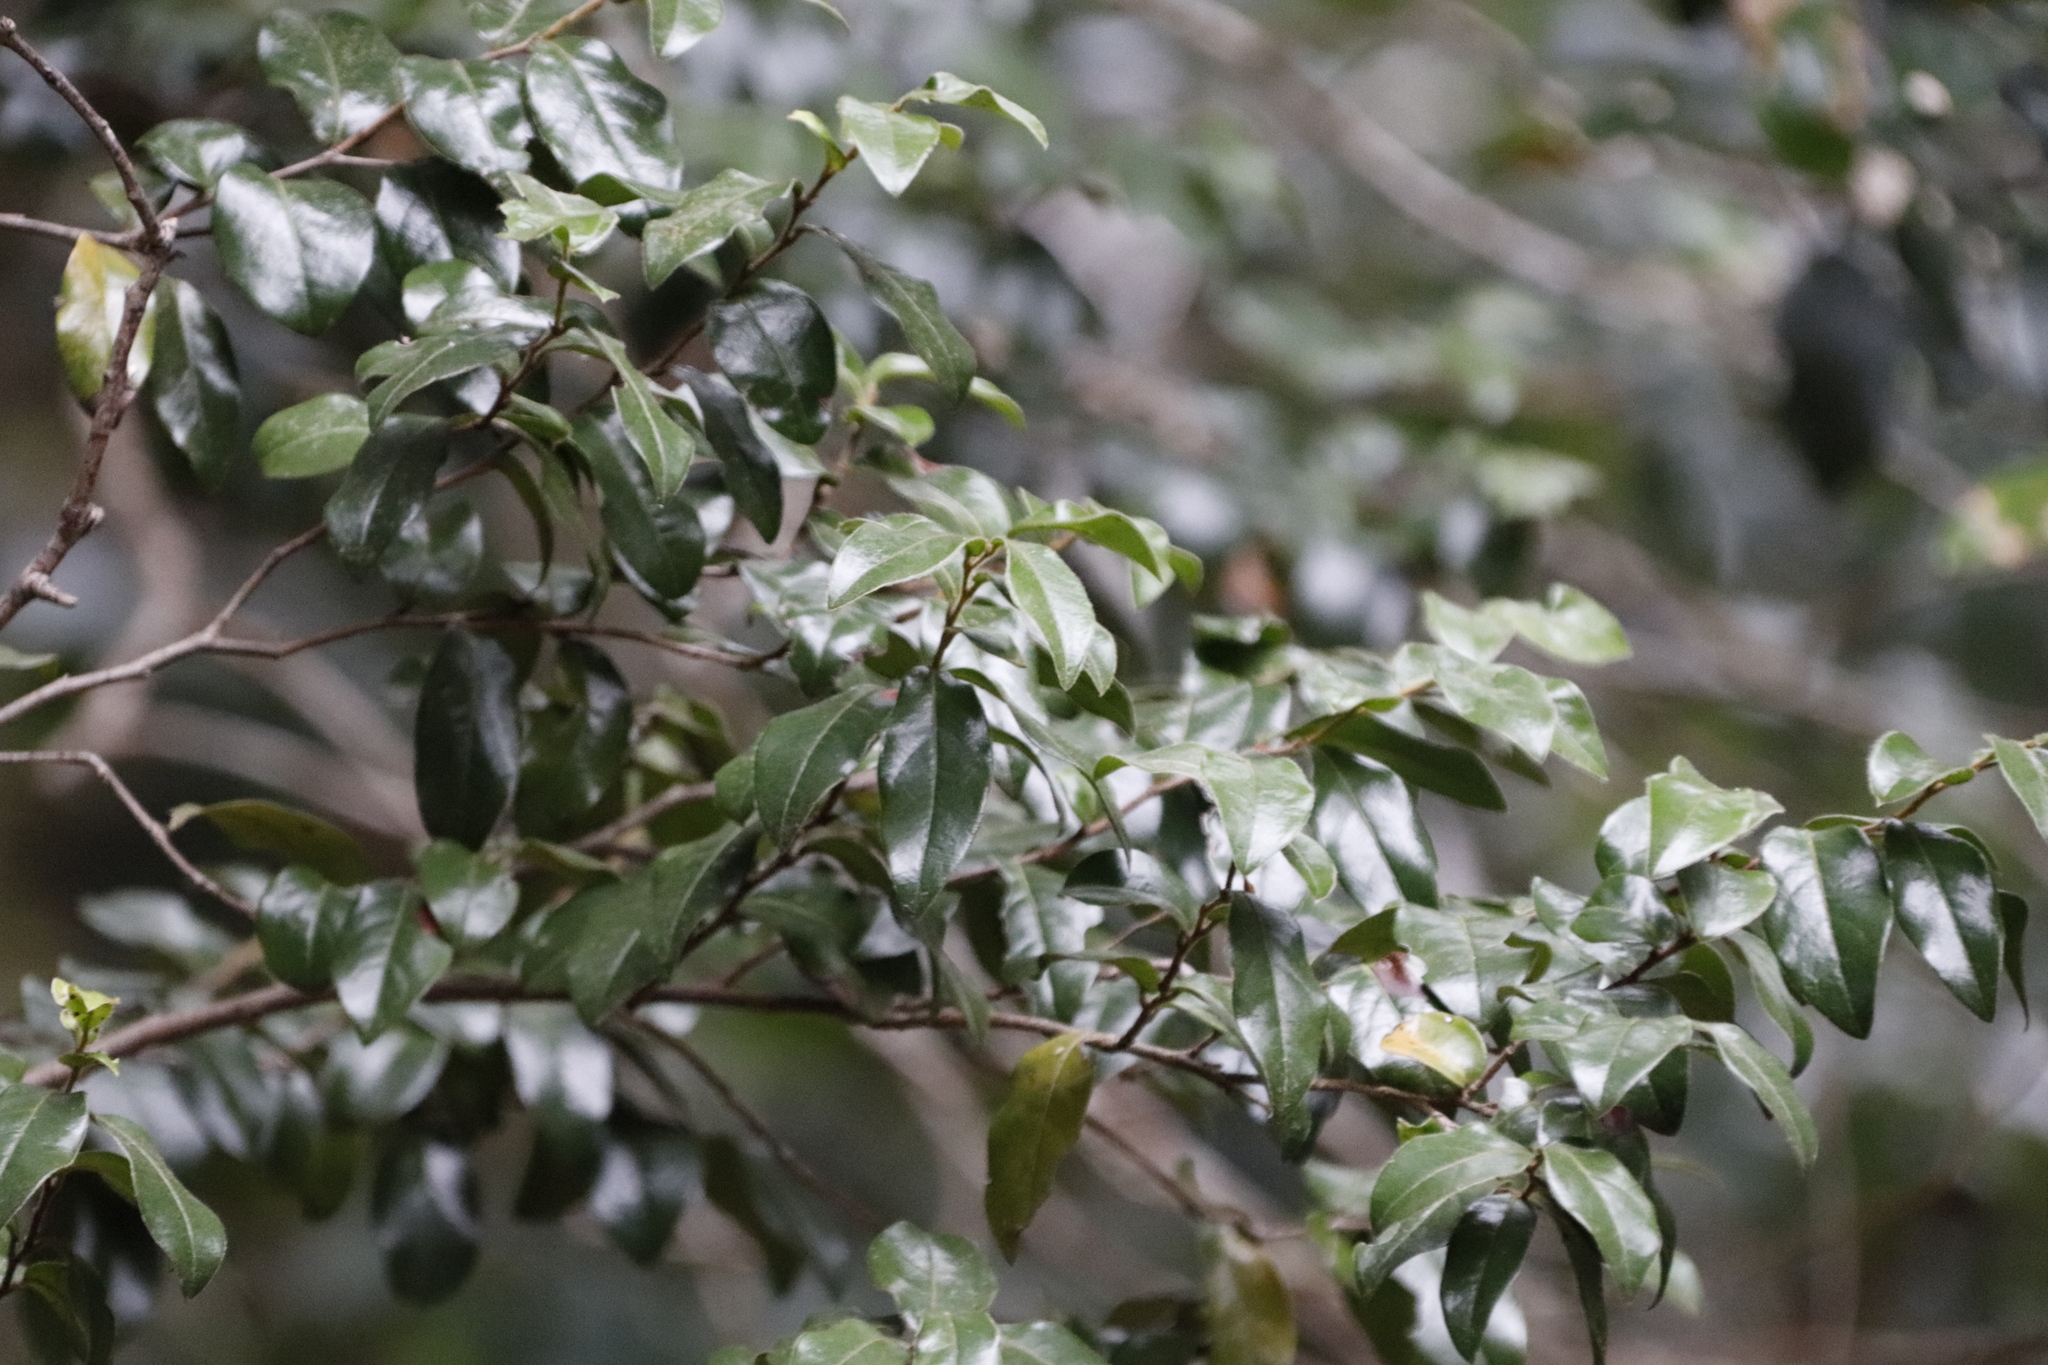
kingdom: Plantae
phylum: Tracheophyta
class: Magnoliopsida
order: Ericales
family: Ebenaceae
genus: Diospyros
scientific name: Diospyros whyteana
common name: Bladder-nut
